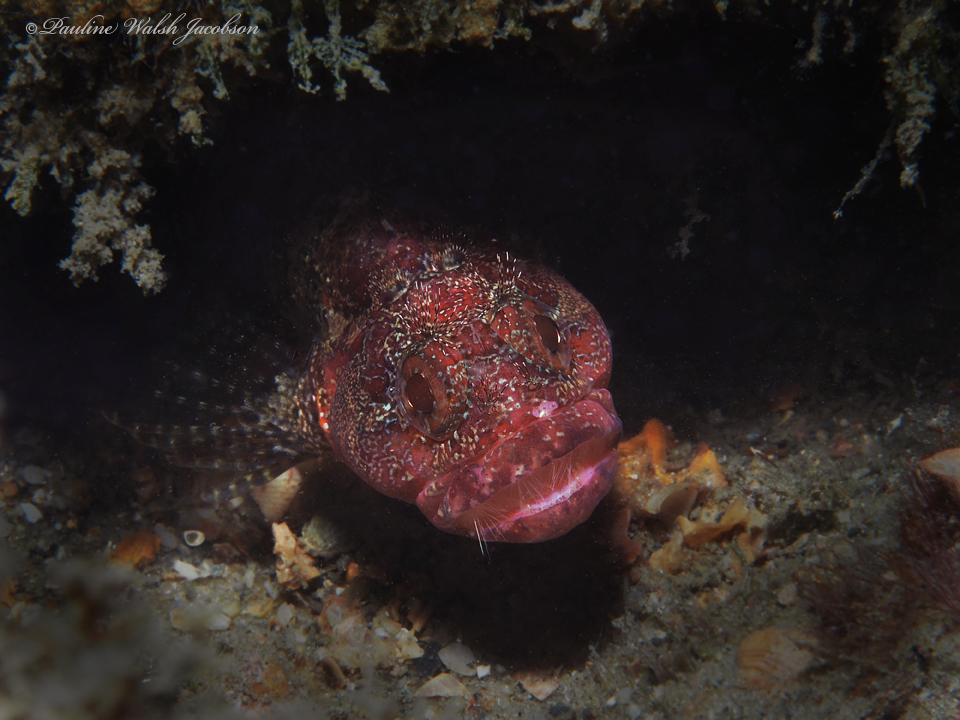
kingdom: Animalia
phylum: Chordata
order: Perciformes
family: Labrisomidae
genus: Gobioclinus
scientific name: Gobioclinus kalisherae
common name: Downy blenny
